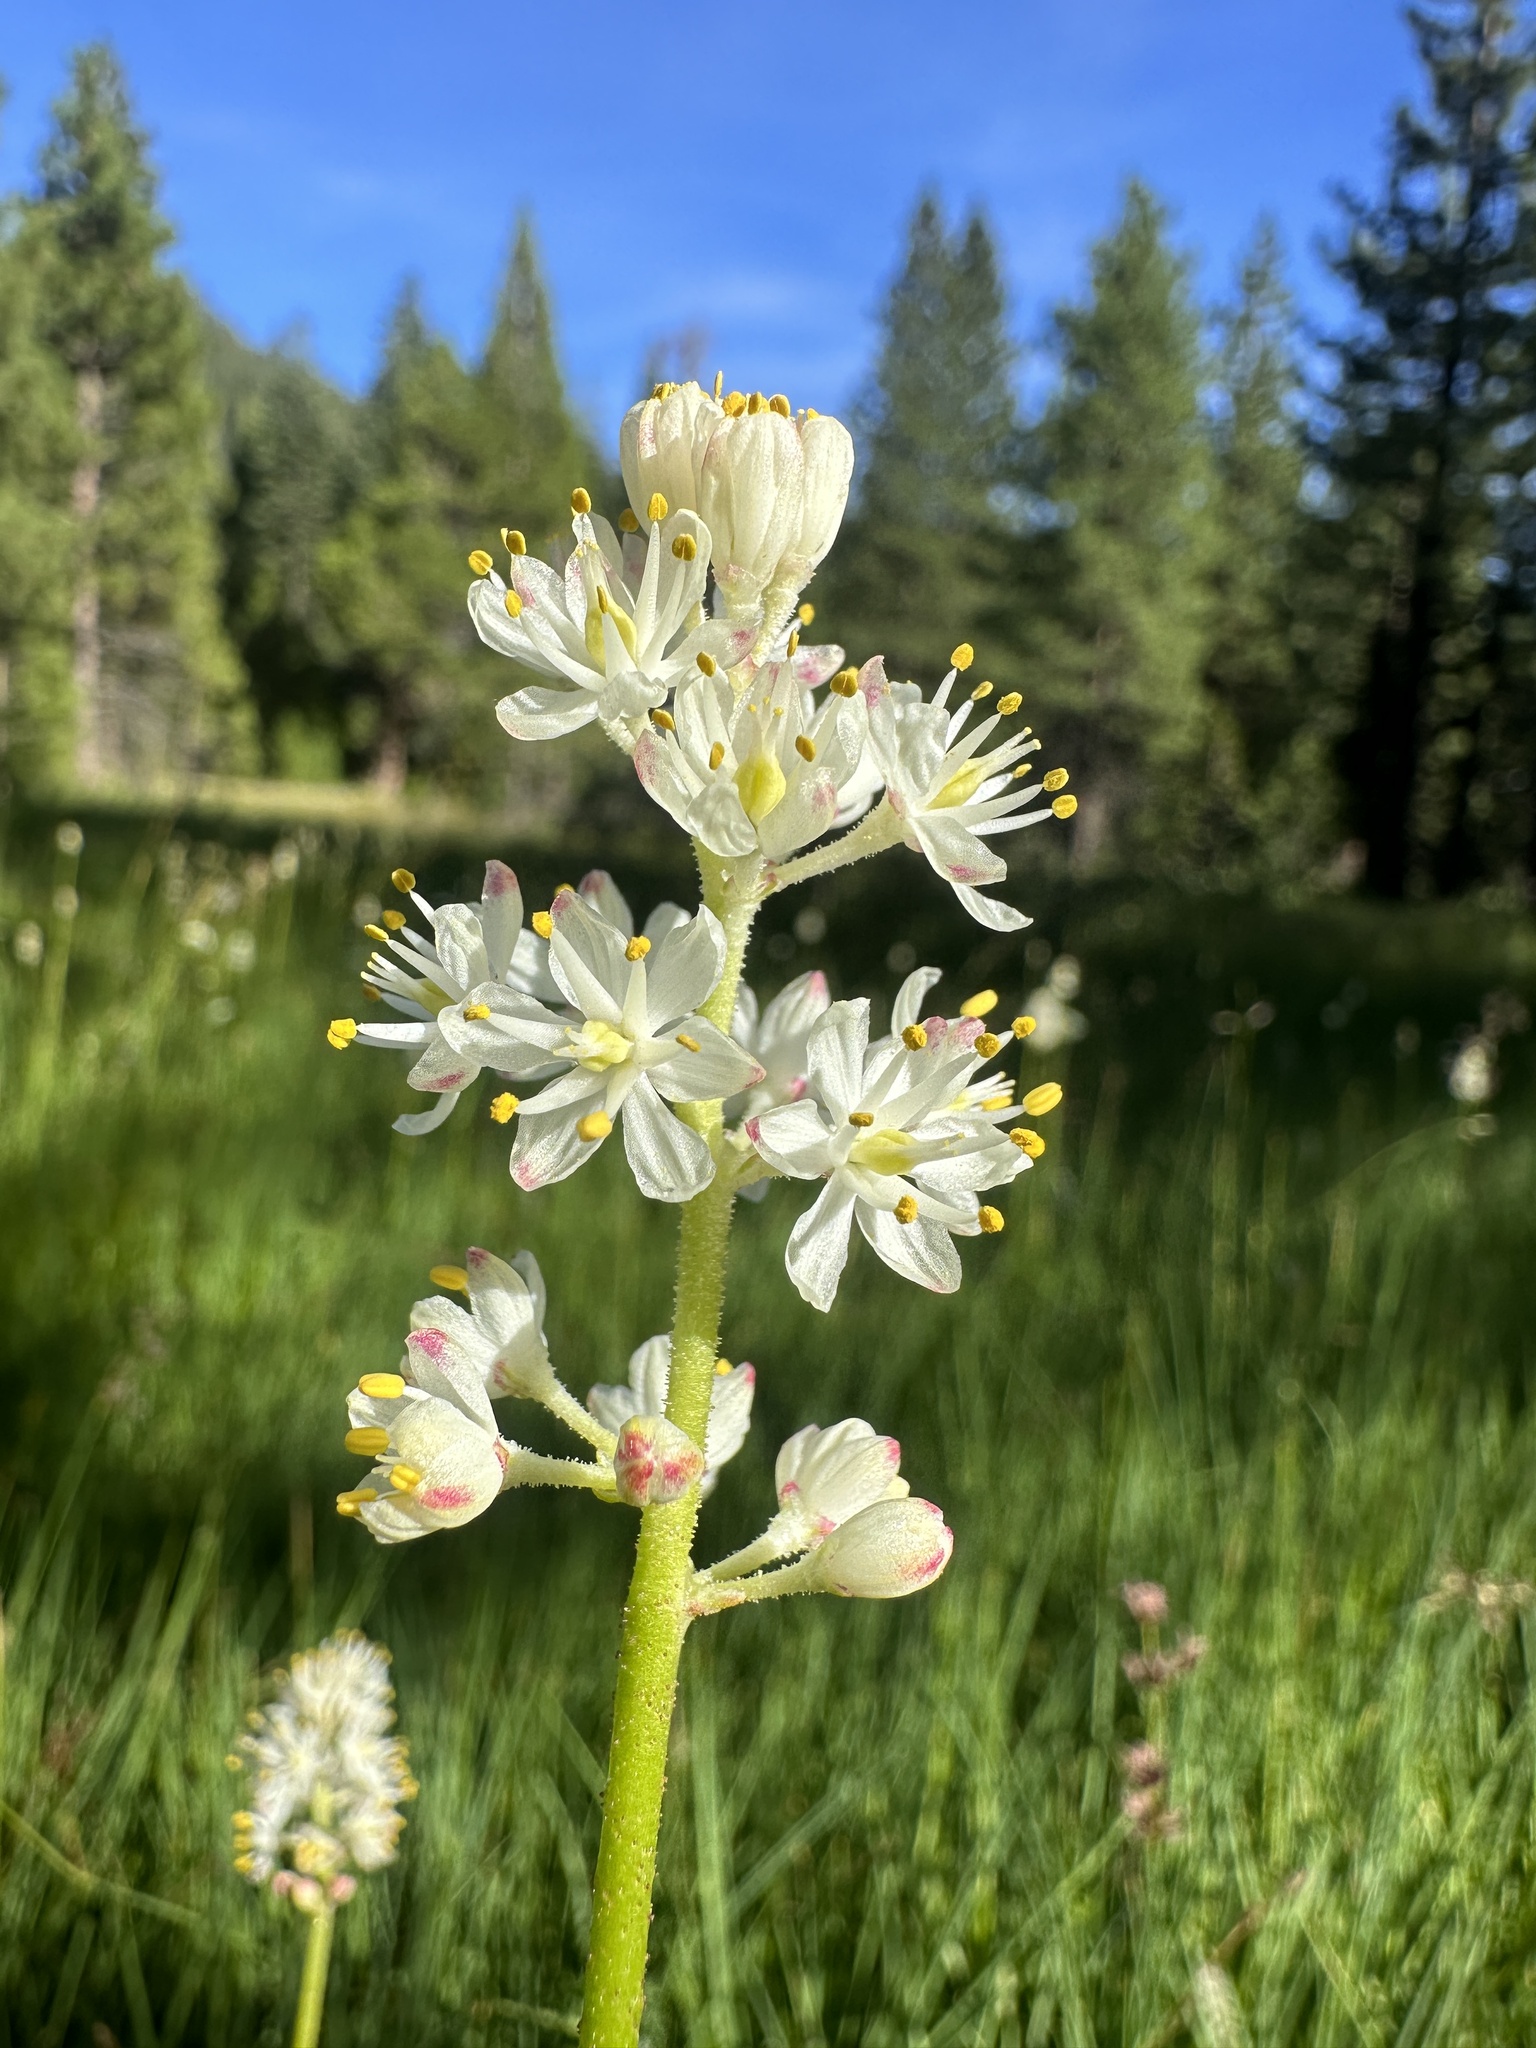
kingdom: Plantae
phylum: Tracheophyta
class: Liliopsida
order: Alismatales
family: Tofieldiaceae
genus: Triantha
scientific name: Triantha occidentalis
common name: Western false asphodel
